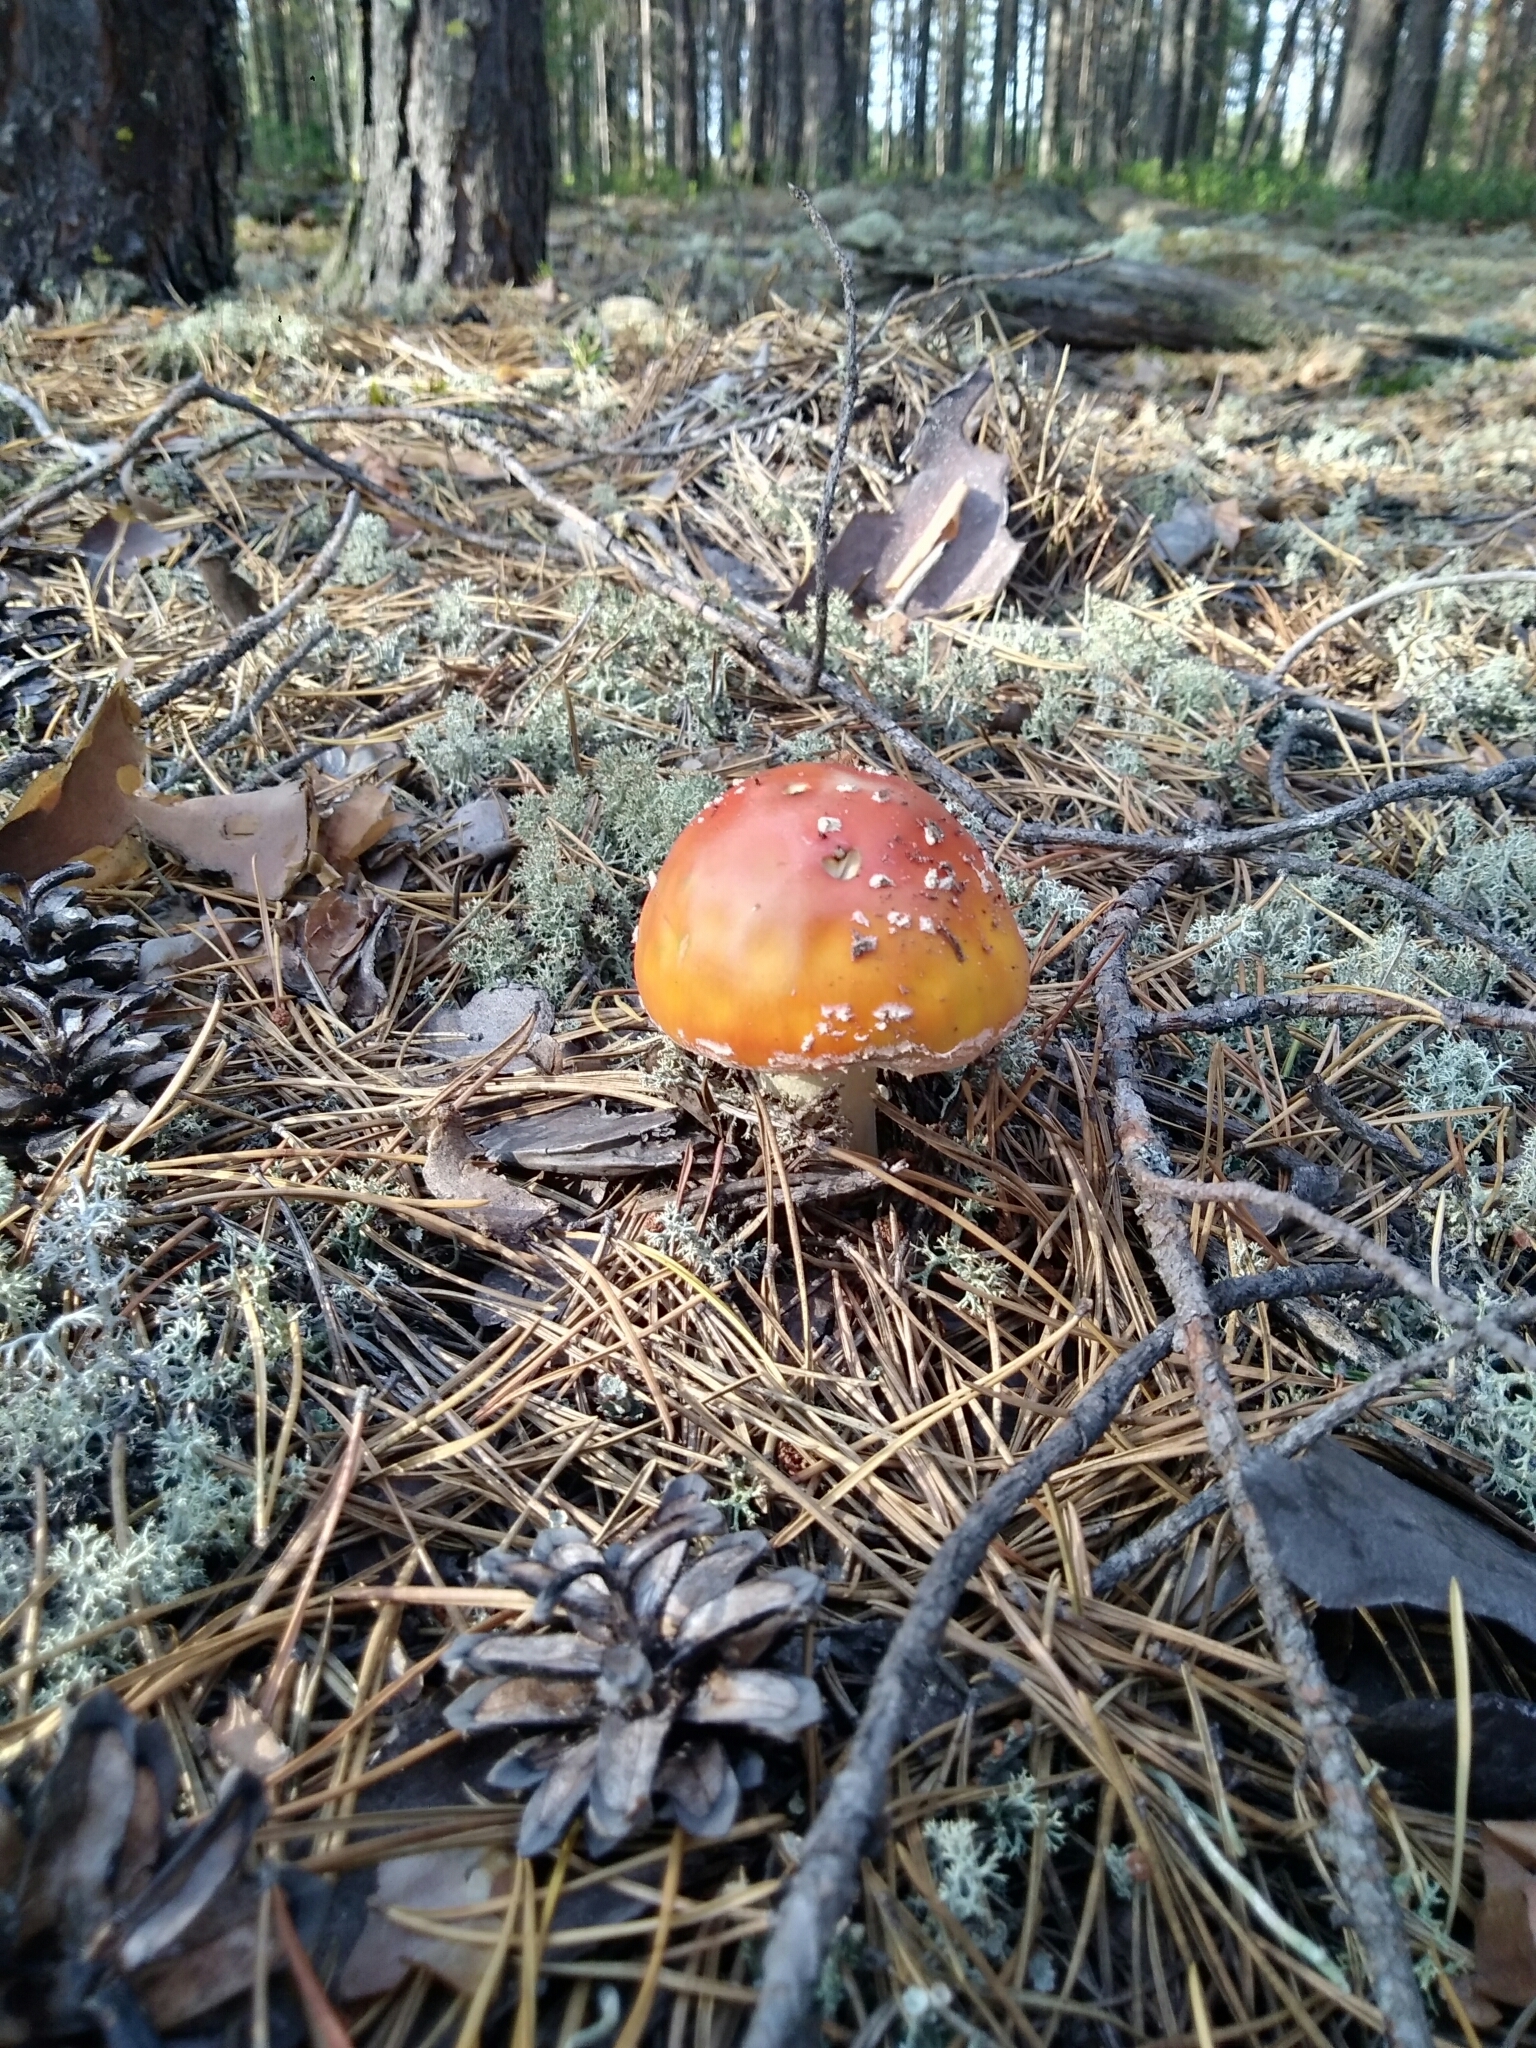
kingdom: Fungi
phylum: Basidiomycota
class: Agaricomycetes
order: Agaricales
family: Amanitaceae
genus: Amanita
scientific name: Amanita muscaria
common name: Fly agaric
